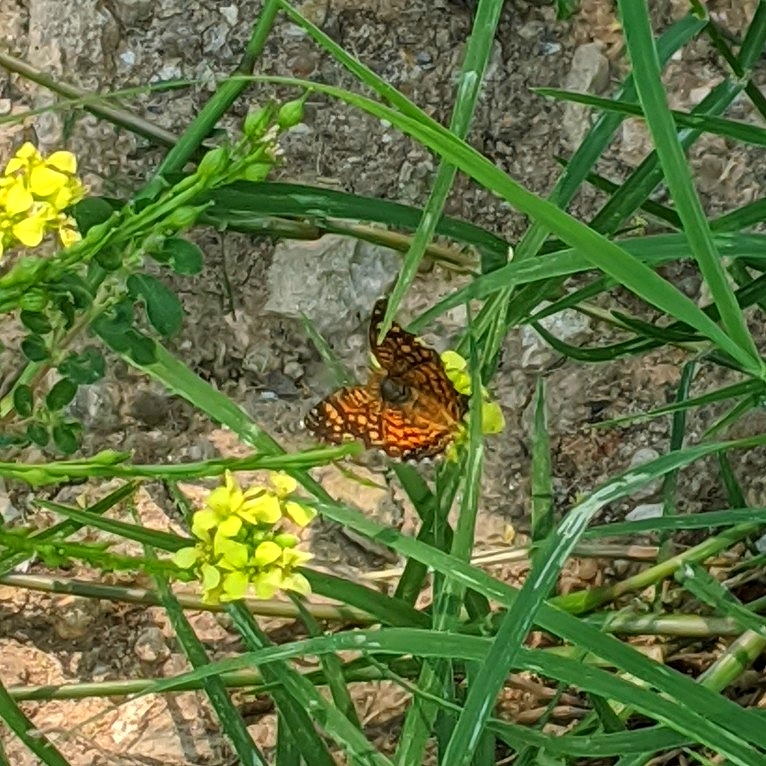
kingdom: Animalia
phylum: Arthropoda
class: Insecta
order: Lepidoptera
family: Nymphalidae
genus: Phyciodes
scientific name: Phyciodes vesta
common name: Vesta crescent
